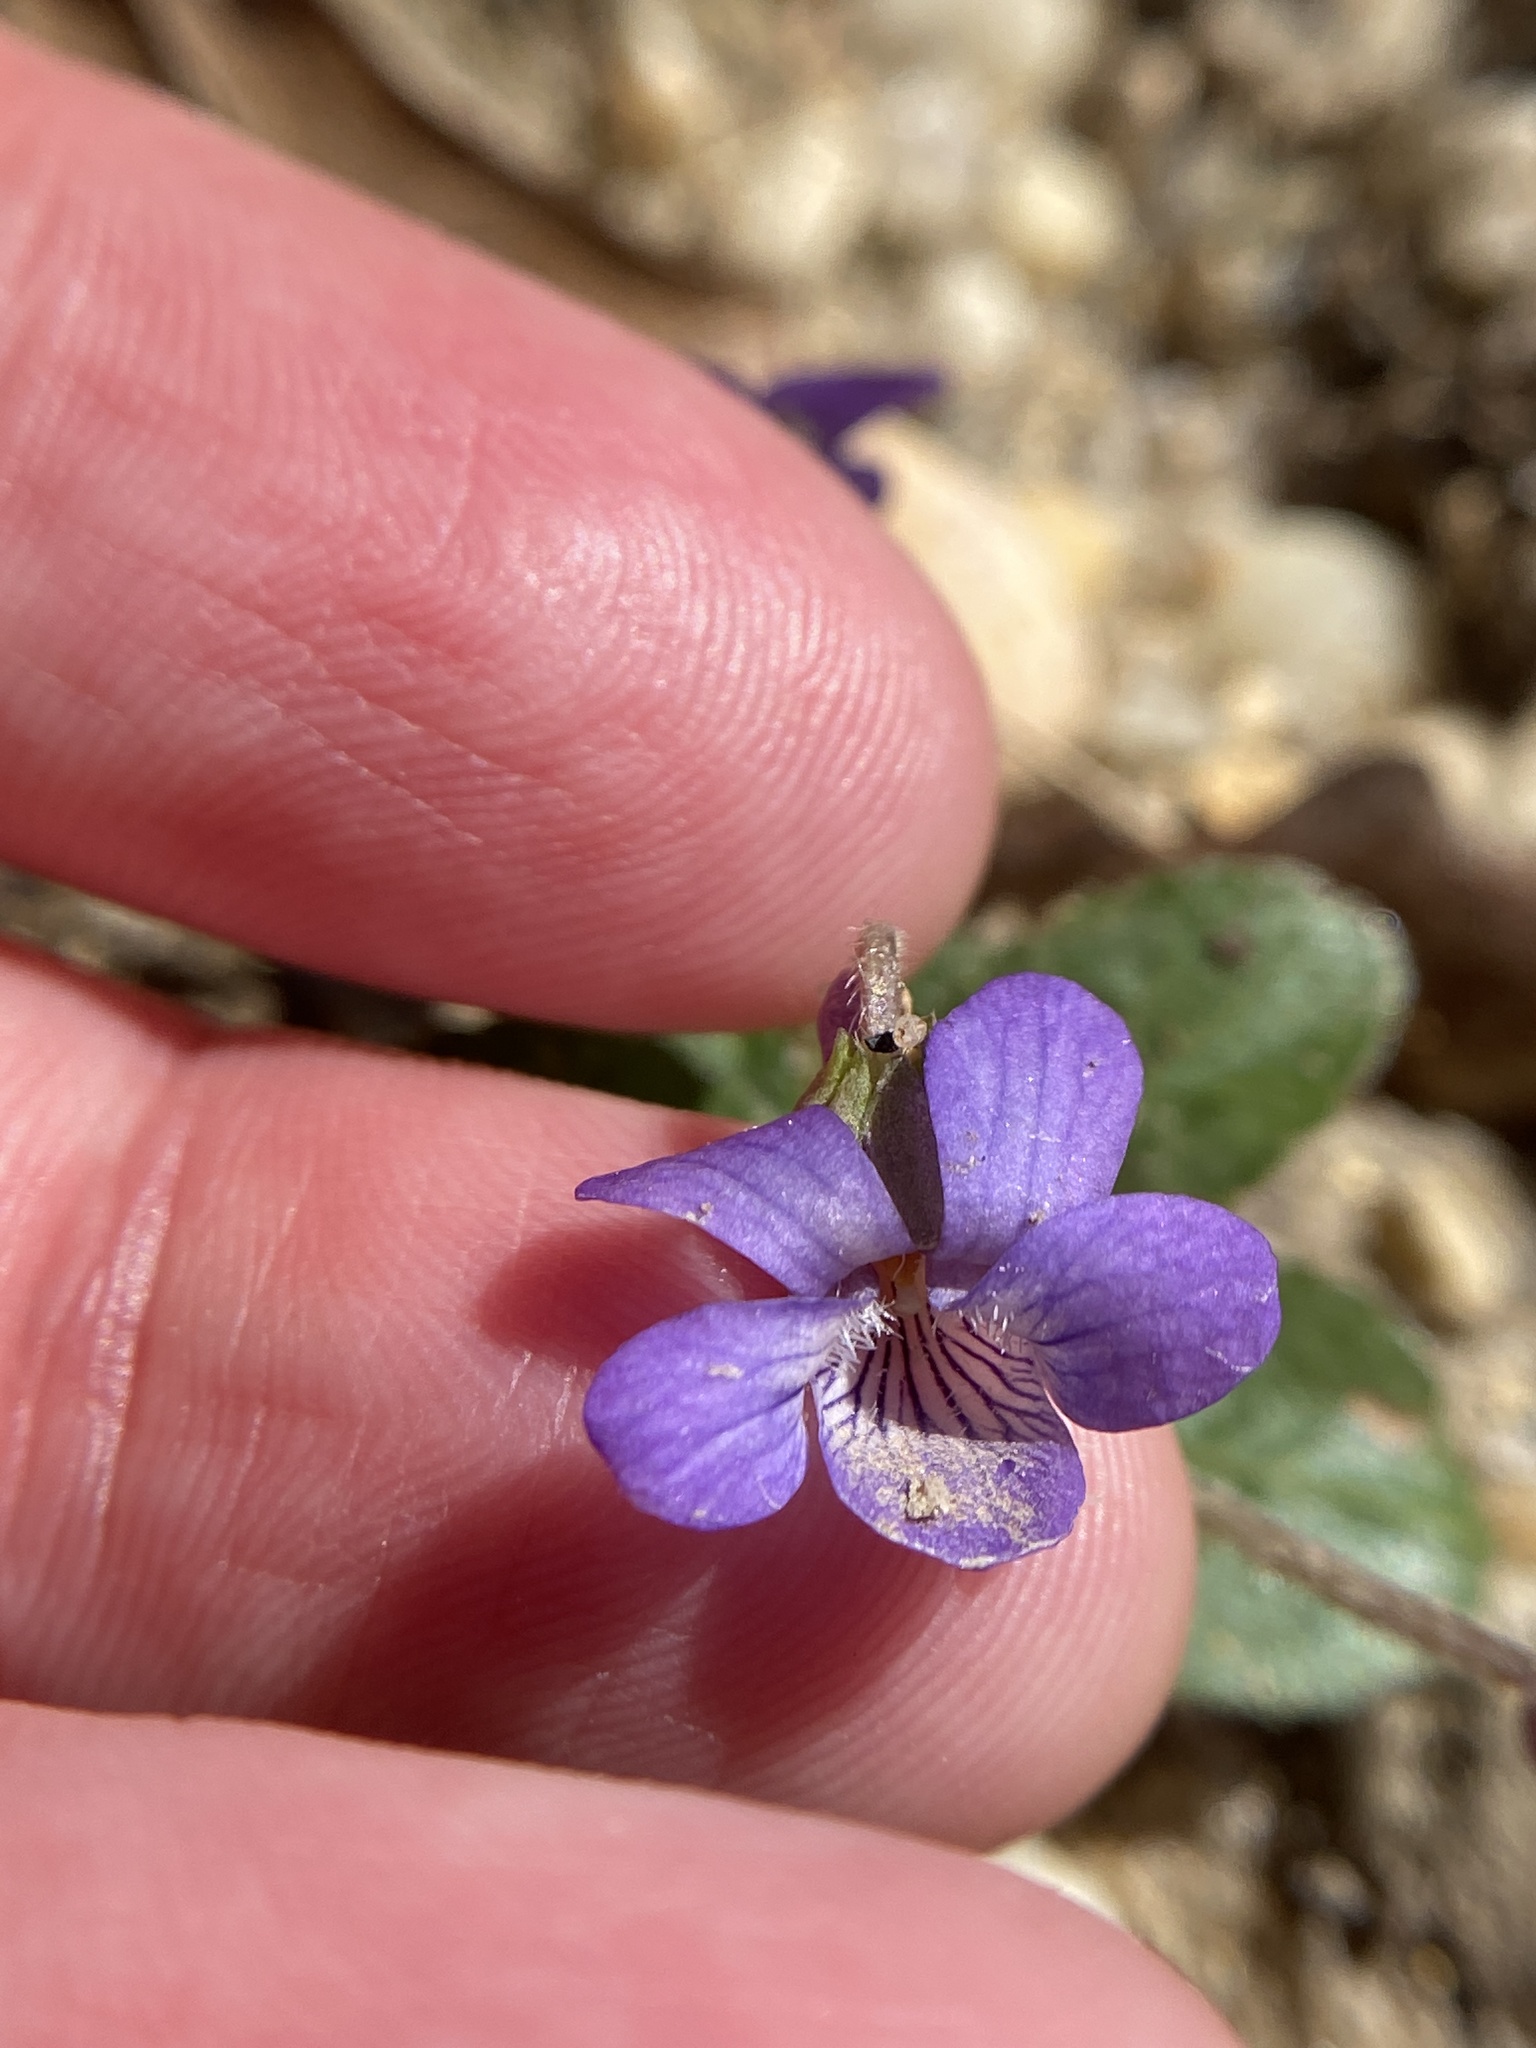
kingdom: Plantae
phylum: Tracheophyta
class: Magnoliopsida
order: Malpighiales
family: Violaceae
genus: Viola
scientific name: Viola fimbriatula
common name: Sand violet
